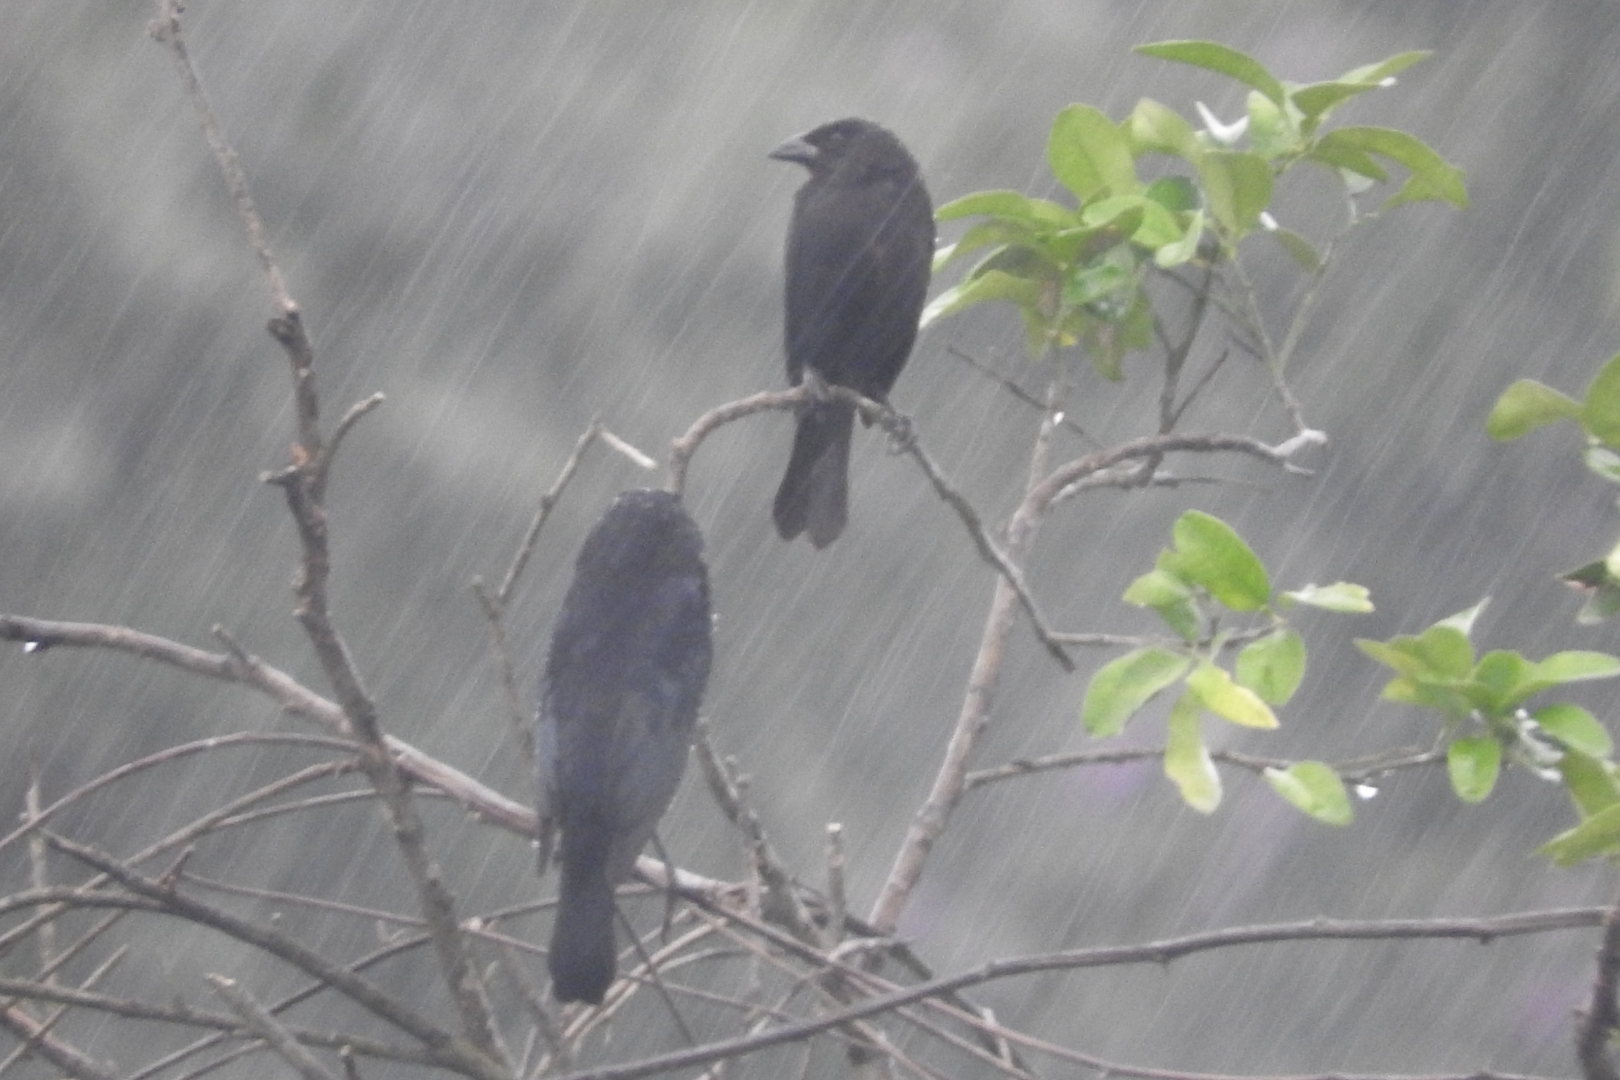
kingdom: Animalia
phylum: Chordata
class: Aves
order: Passeriformes
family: Icteridae
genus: Molothrus
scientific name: Molothrus aeneus
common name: Bronzed cowbird
